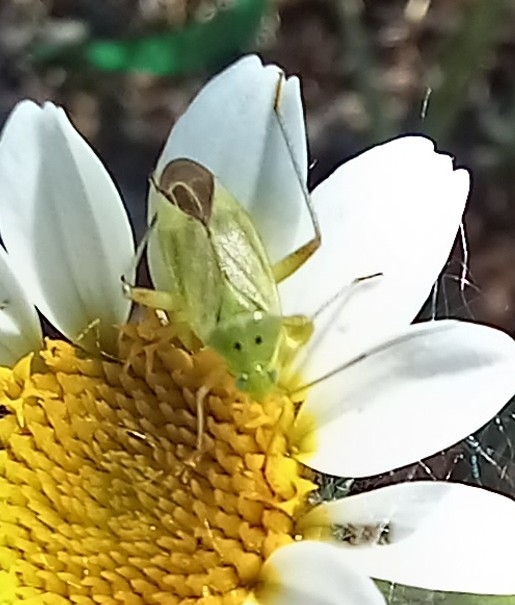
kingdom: Animalia
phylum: Arthropoda
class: Insecta
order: Hemiptera
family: Miridae
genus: Closterotomus
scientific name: Closterotomus norvegicus
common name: Plant bug
